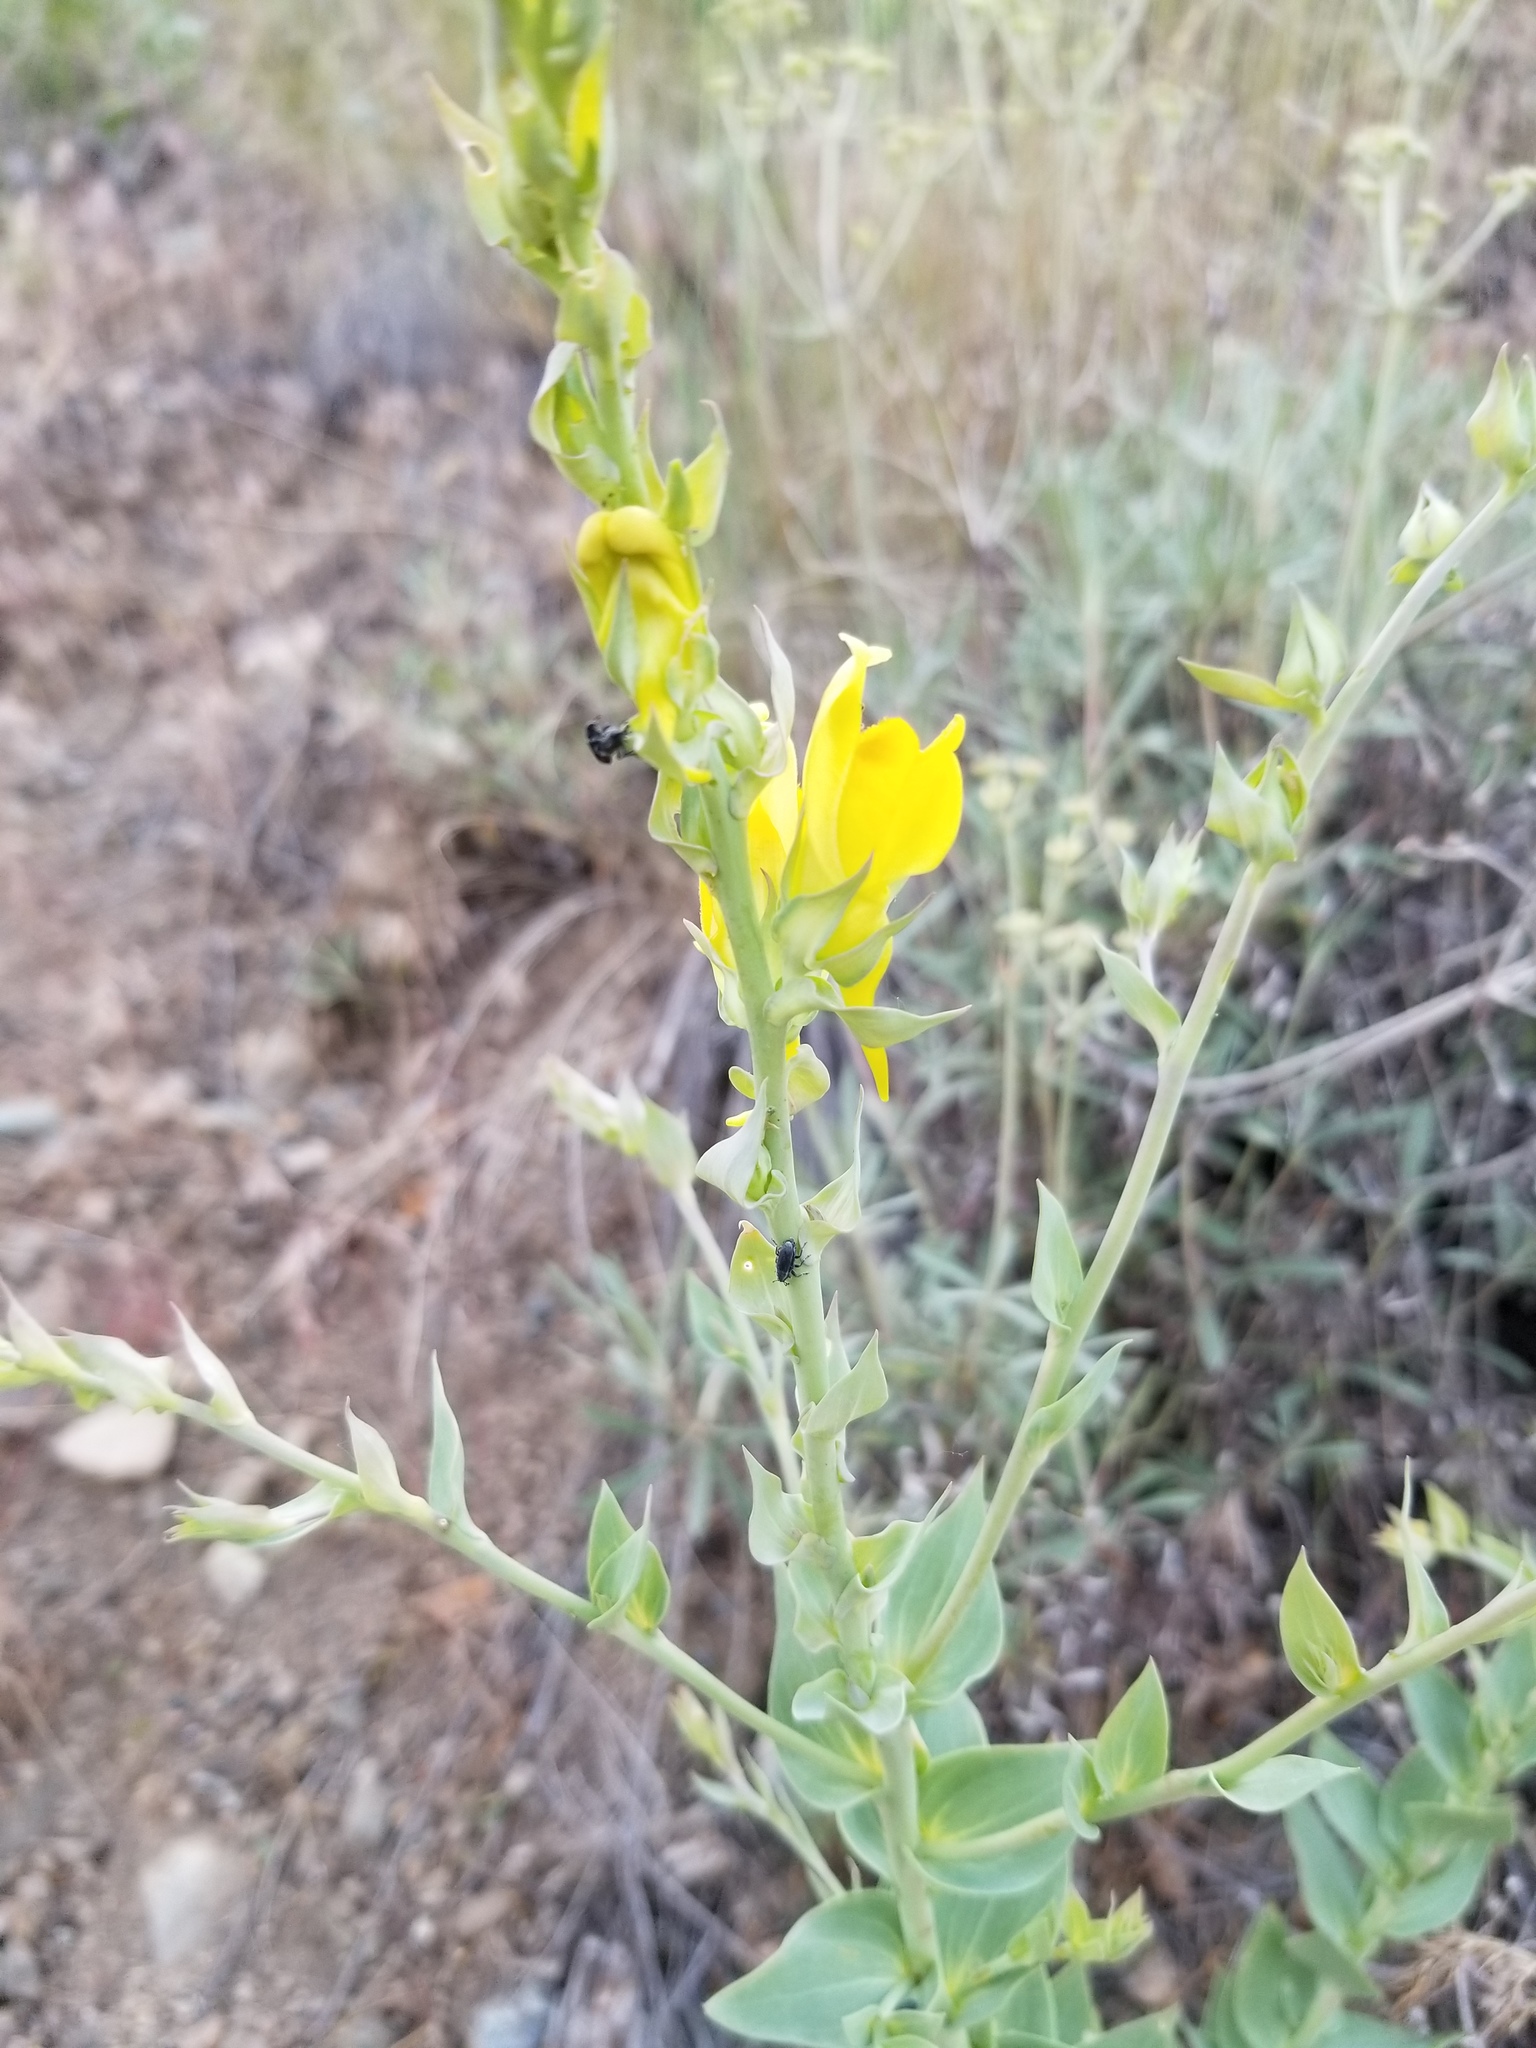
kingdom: Animalia
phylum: Arthropoda
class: Insecta
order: Coleoptera
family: Curculionidae
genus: Mecinus
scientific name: Mecinus janthiniformis
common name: Dalmatian toadflax stem weevil
